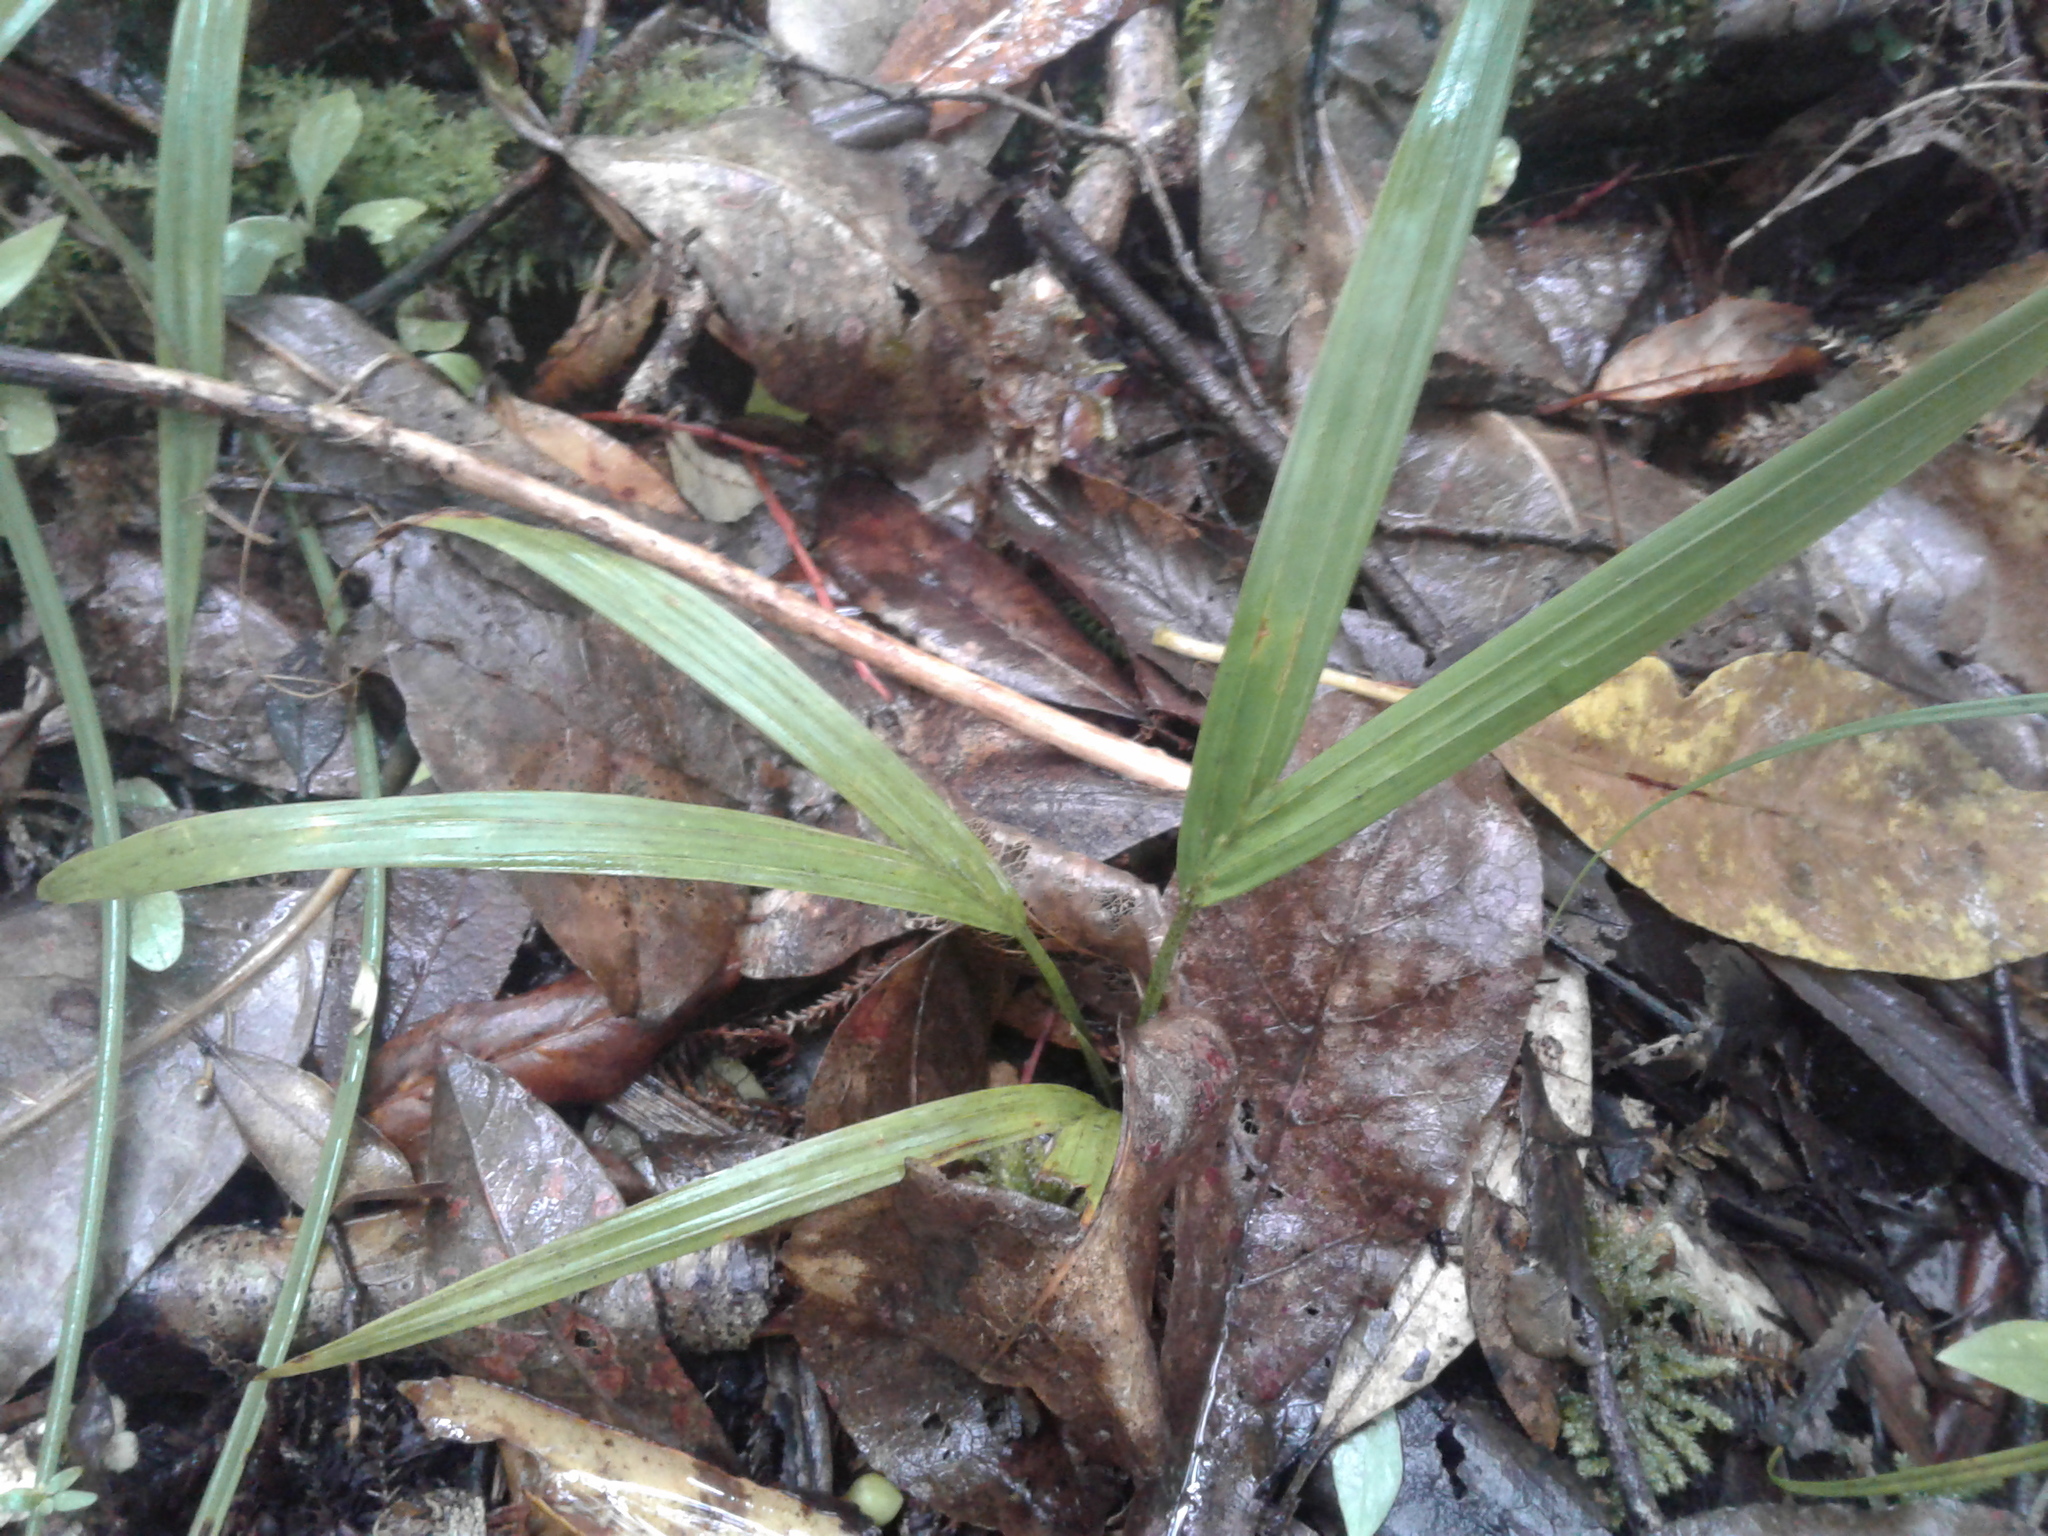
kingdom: Plantae
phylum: Tracheophyta
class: Liliopsida
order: Arecales
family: Arecaceae
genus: Rhopalostylis
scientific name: Rhopalostylis sapida
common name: Feather-duster palm
